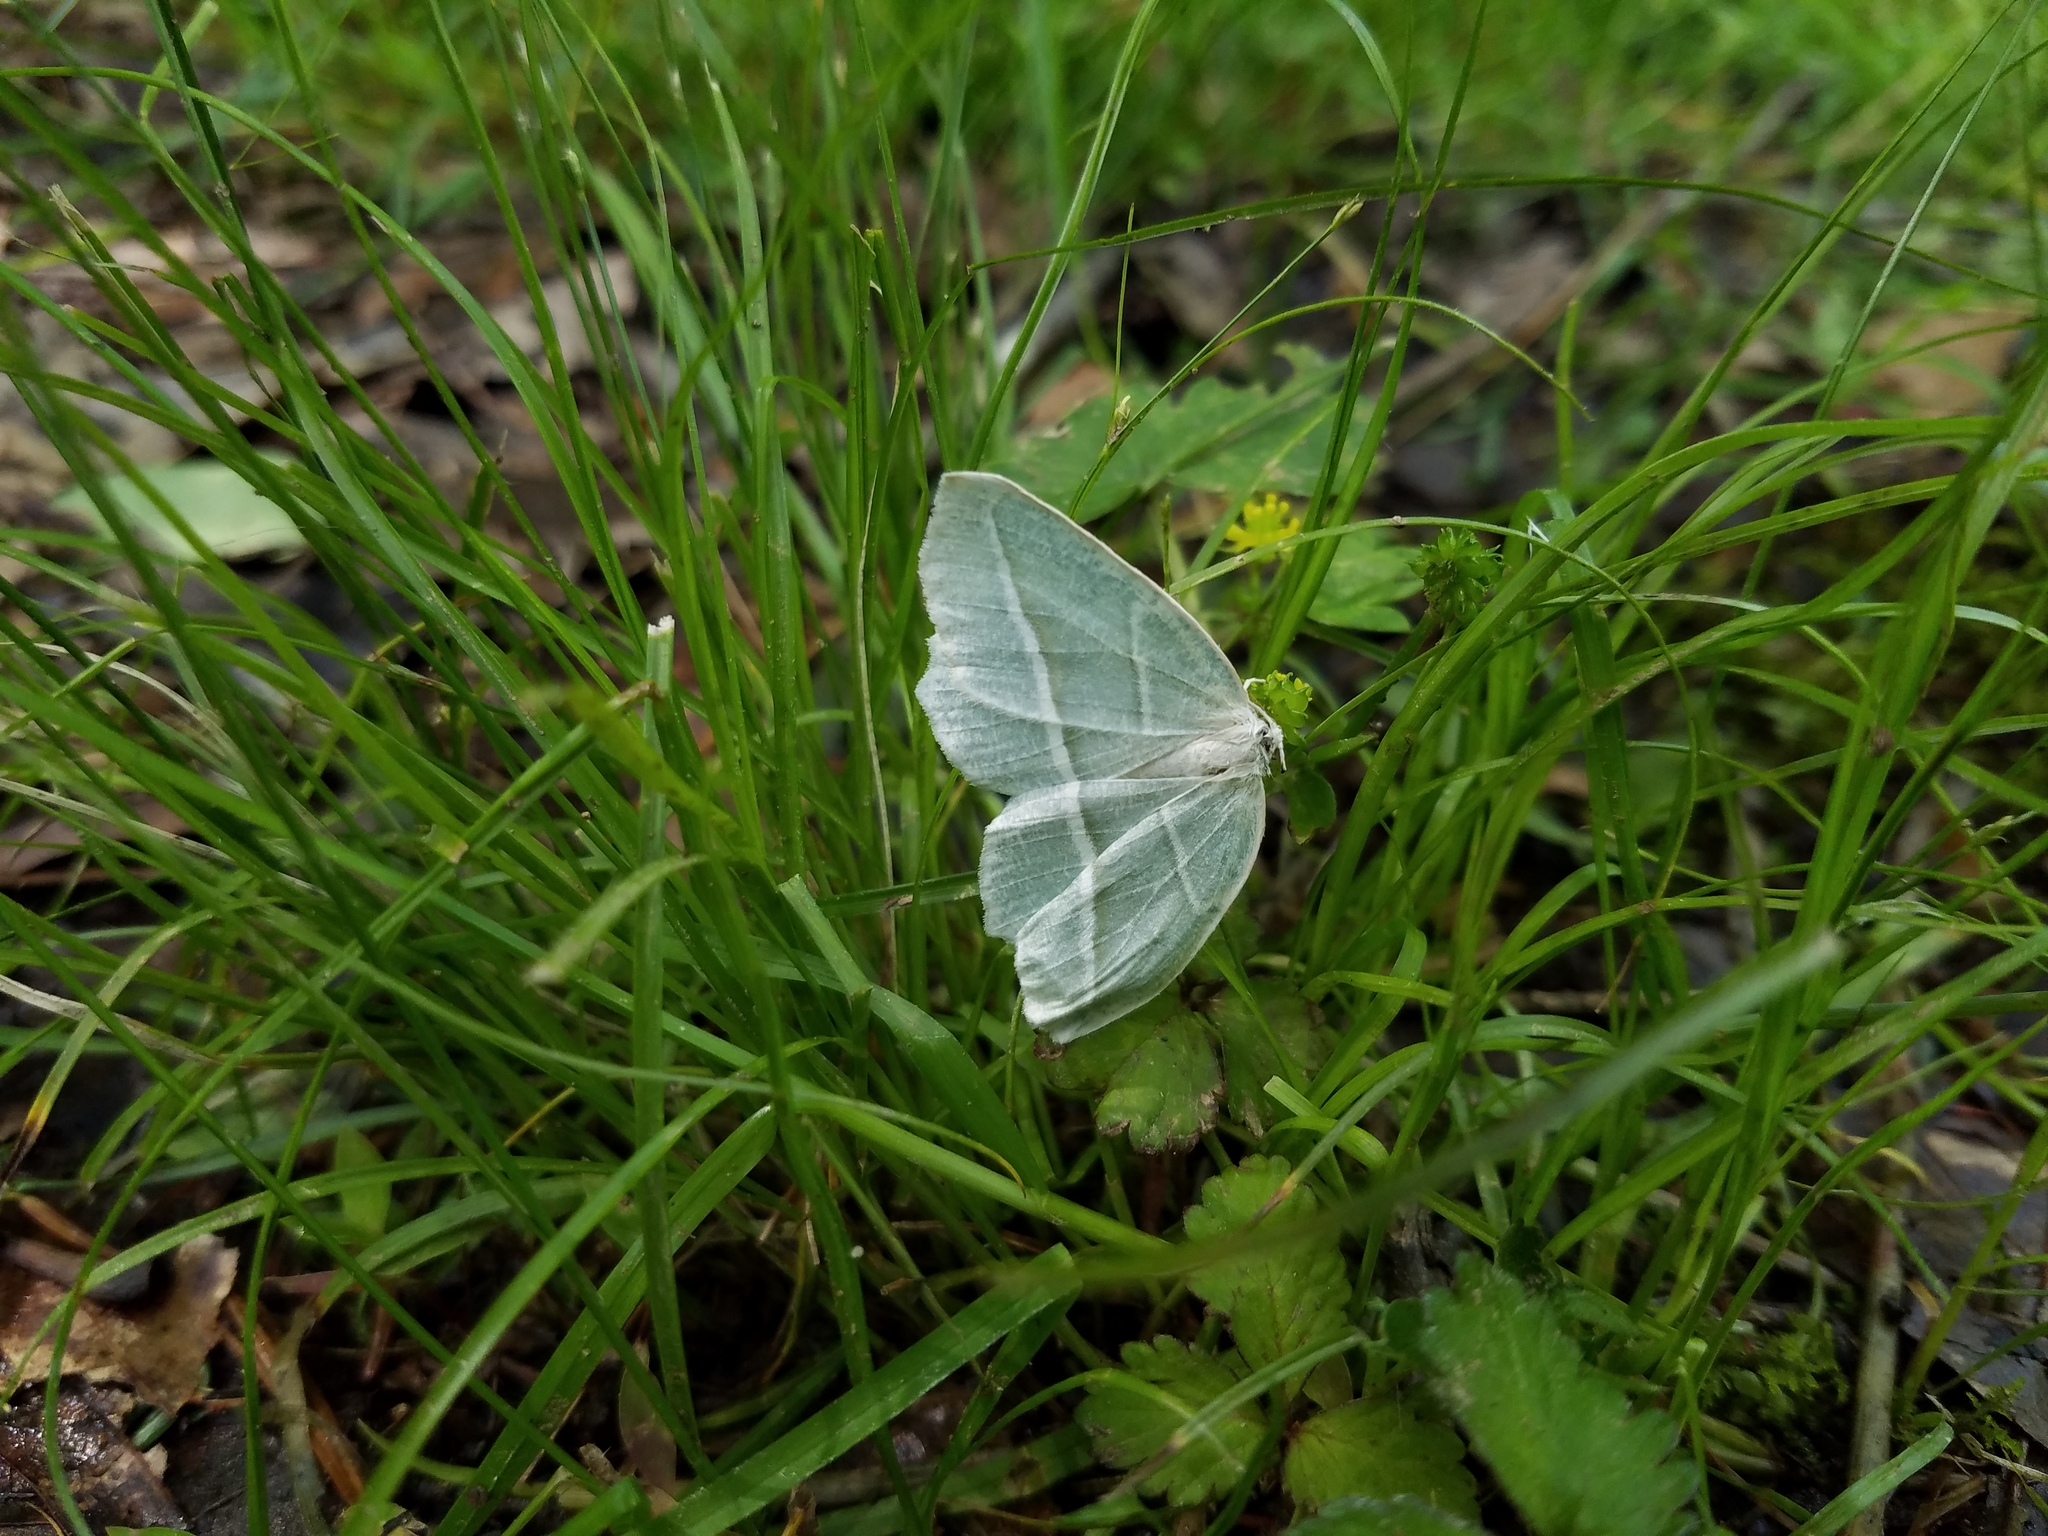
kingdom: Animalia
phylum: Arthropoda
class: Insecta
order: Lepidoptera
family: Geometridae
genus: Campaea
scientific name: Campaea perlata
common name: Fringed looper
